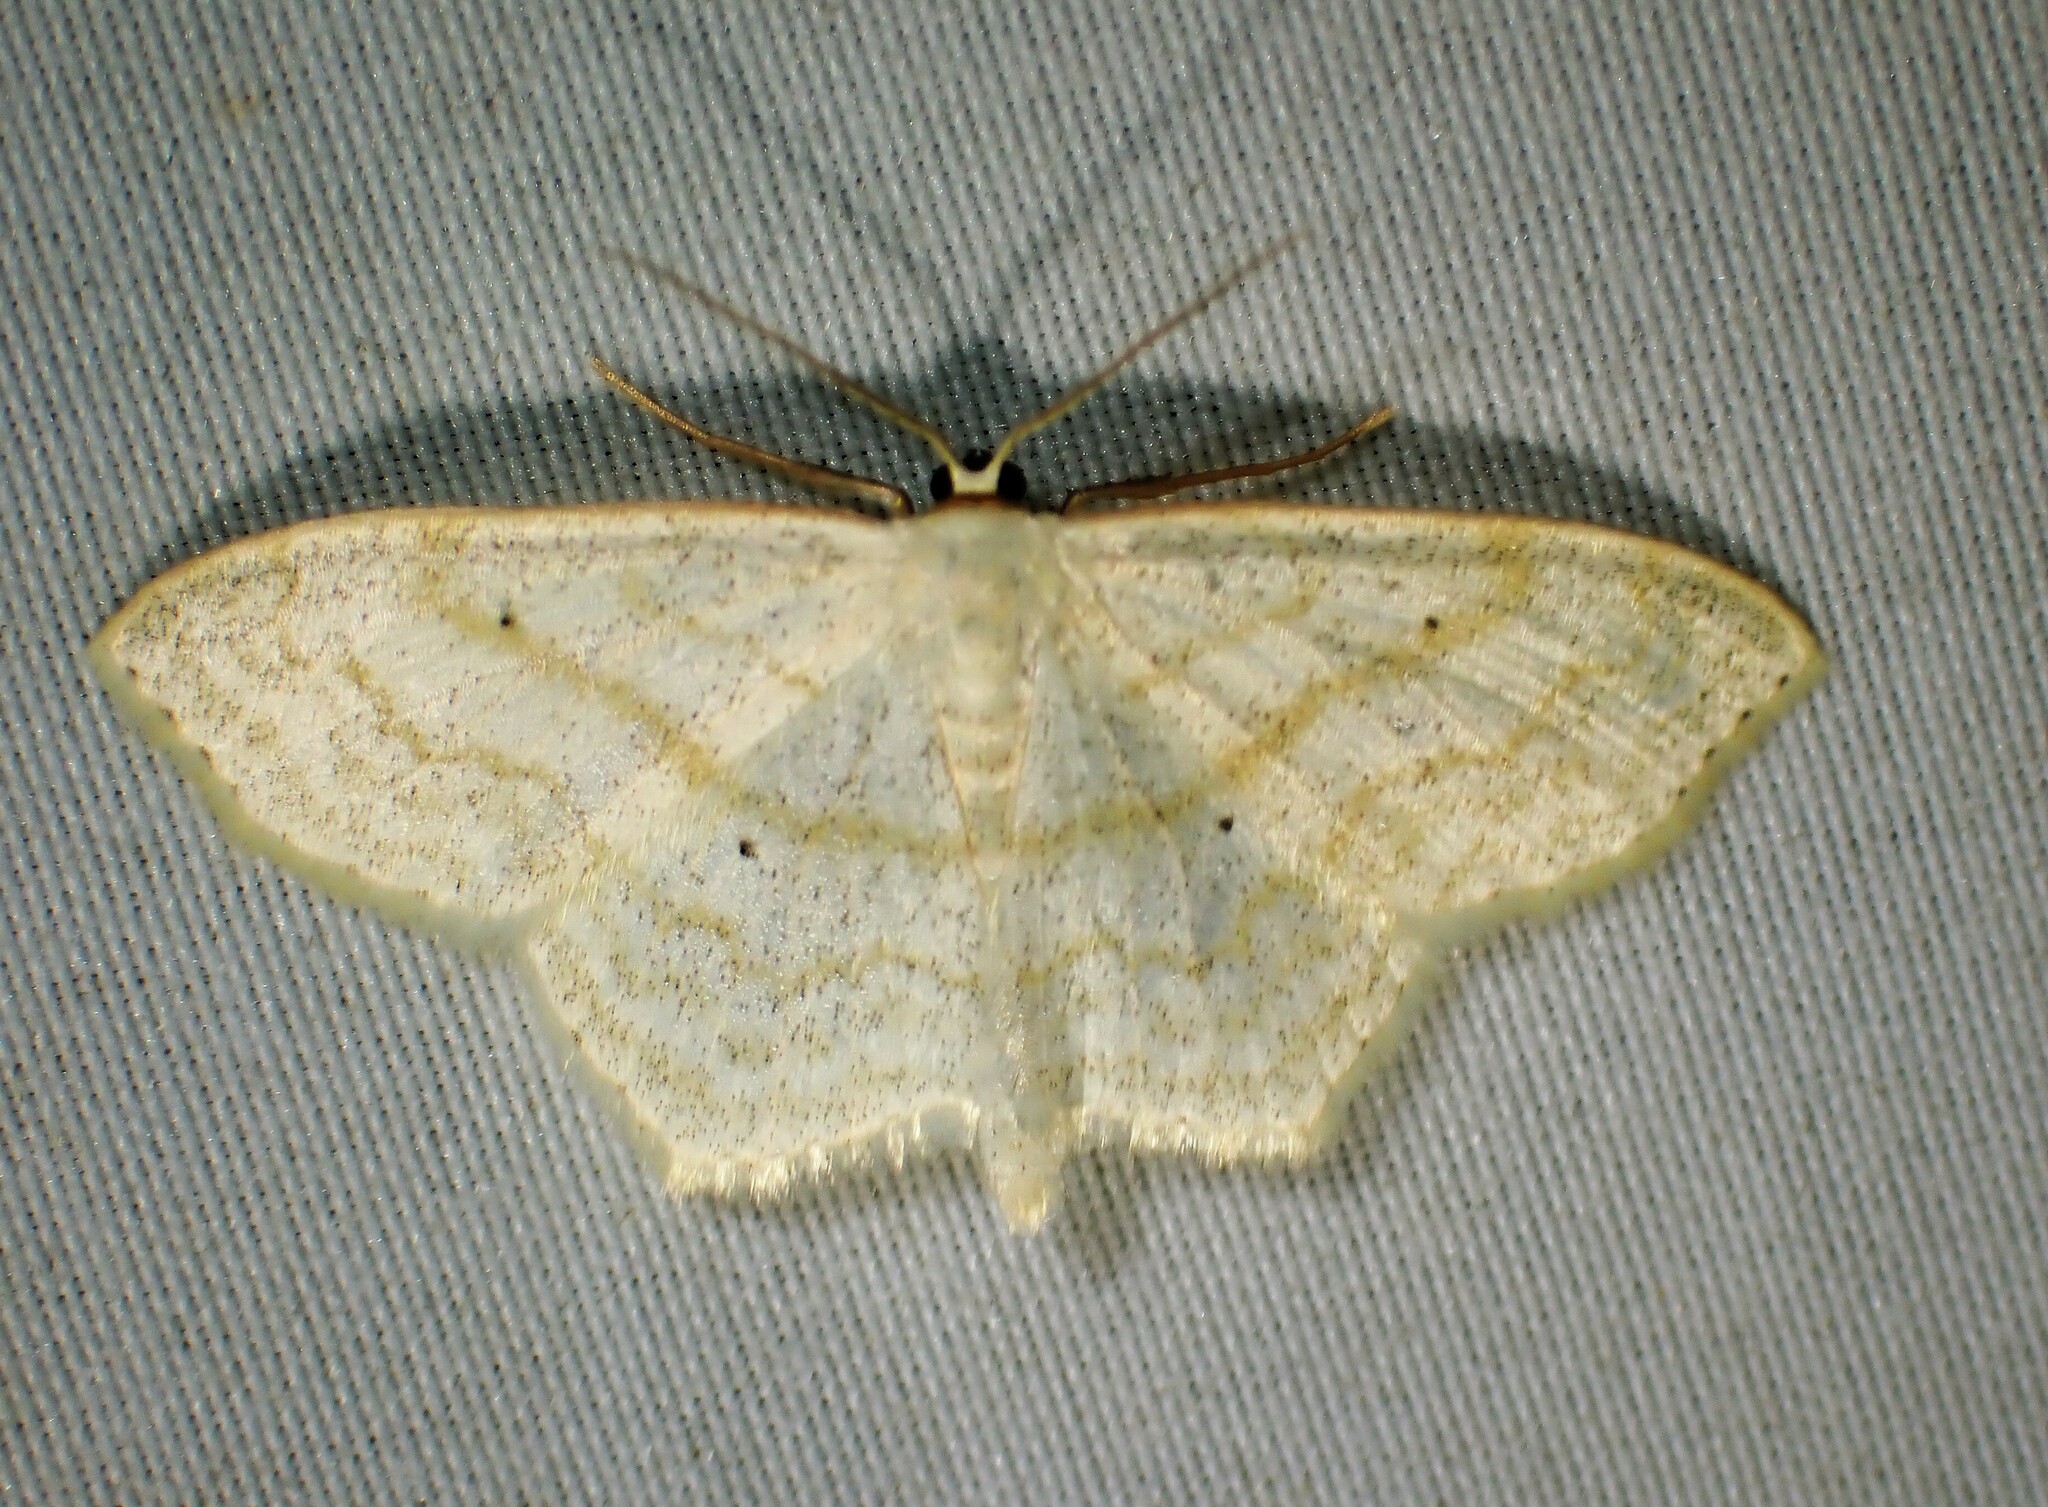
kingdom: Animalia
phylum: Arthropoda
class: Insecta
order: Lepidoptera
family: Geometridae
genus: Scopula
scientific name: Scopula limboundata
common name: Large lace border
